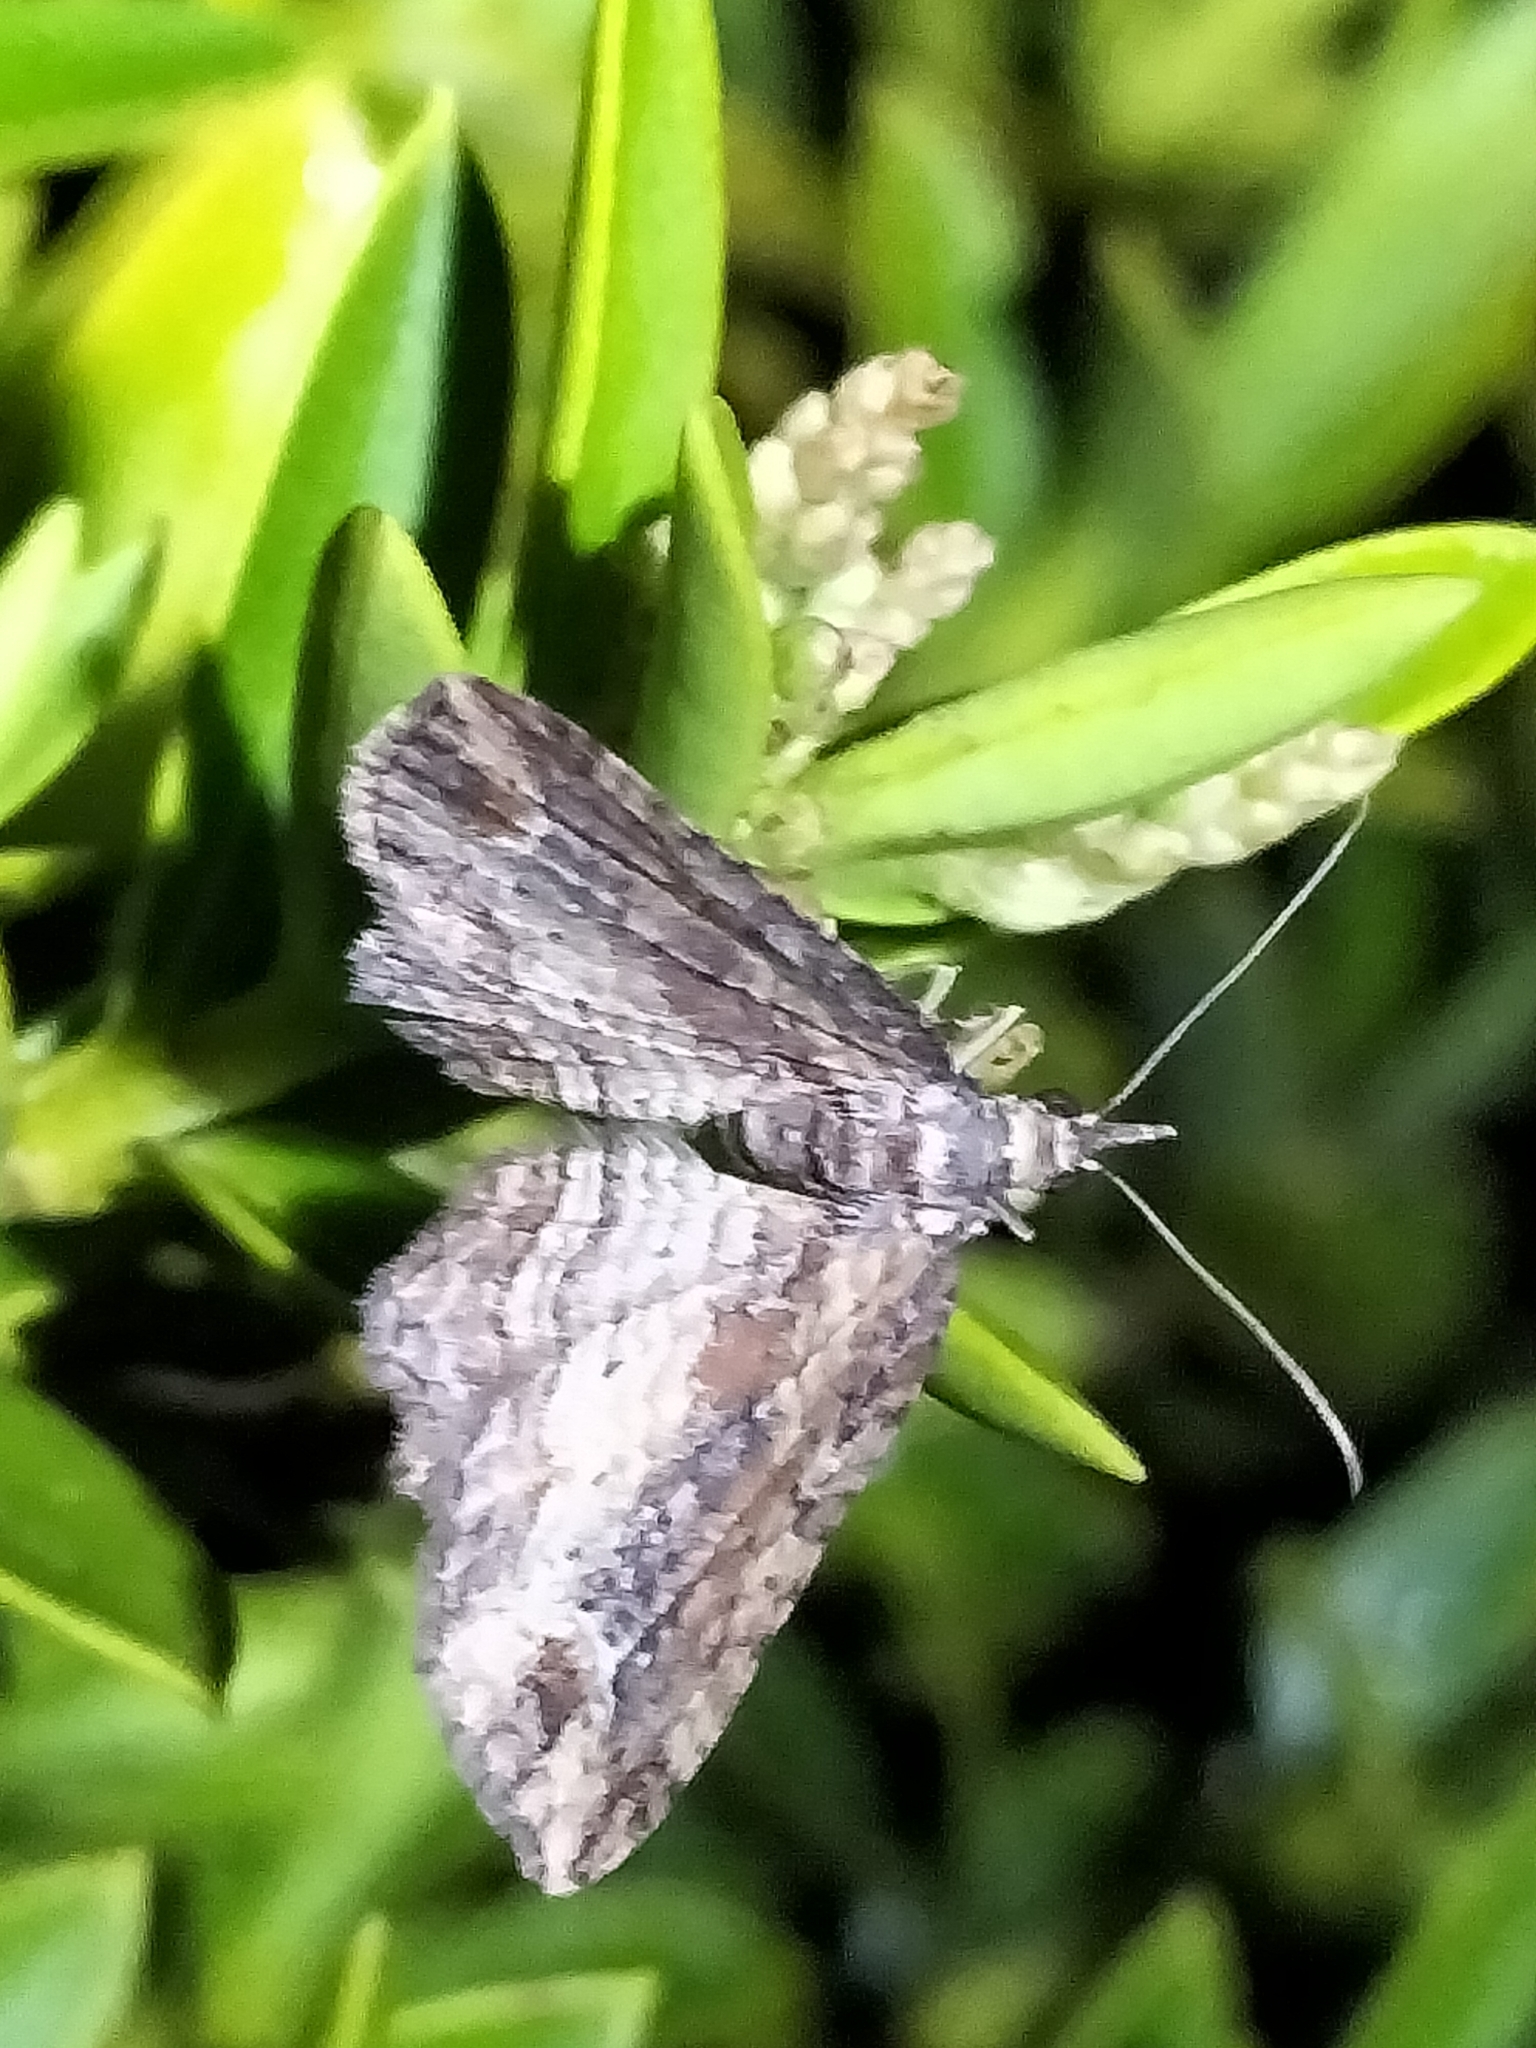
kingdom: Animalia
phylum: Arthropoda
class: Insecta
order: Lepidoptera
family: Geometridae
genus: Chloroclystis
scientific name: Chloroclystis filata
